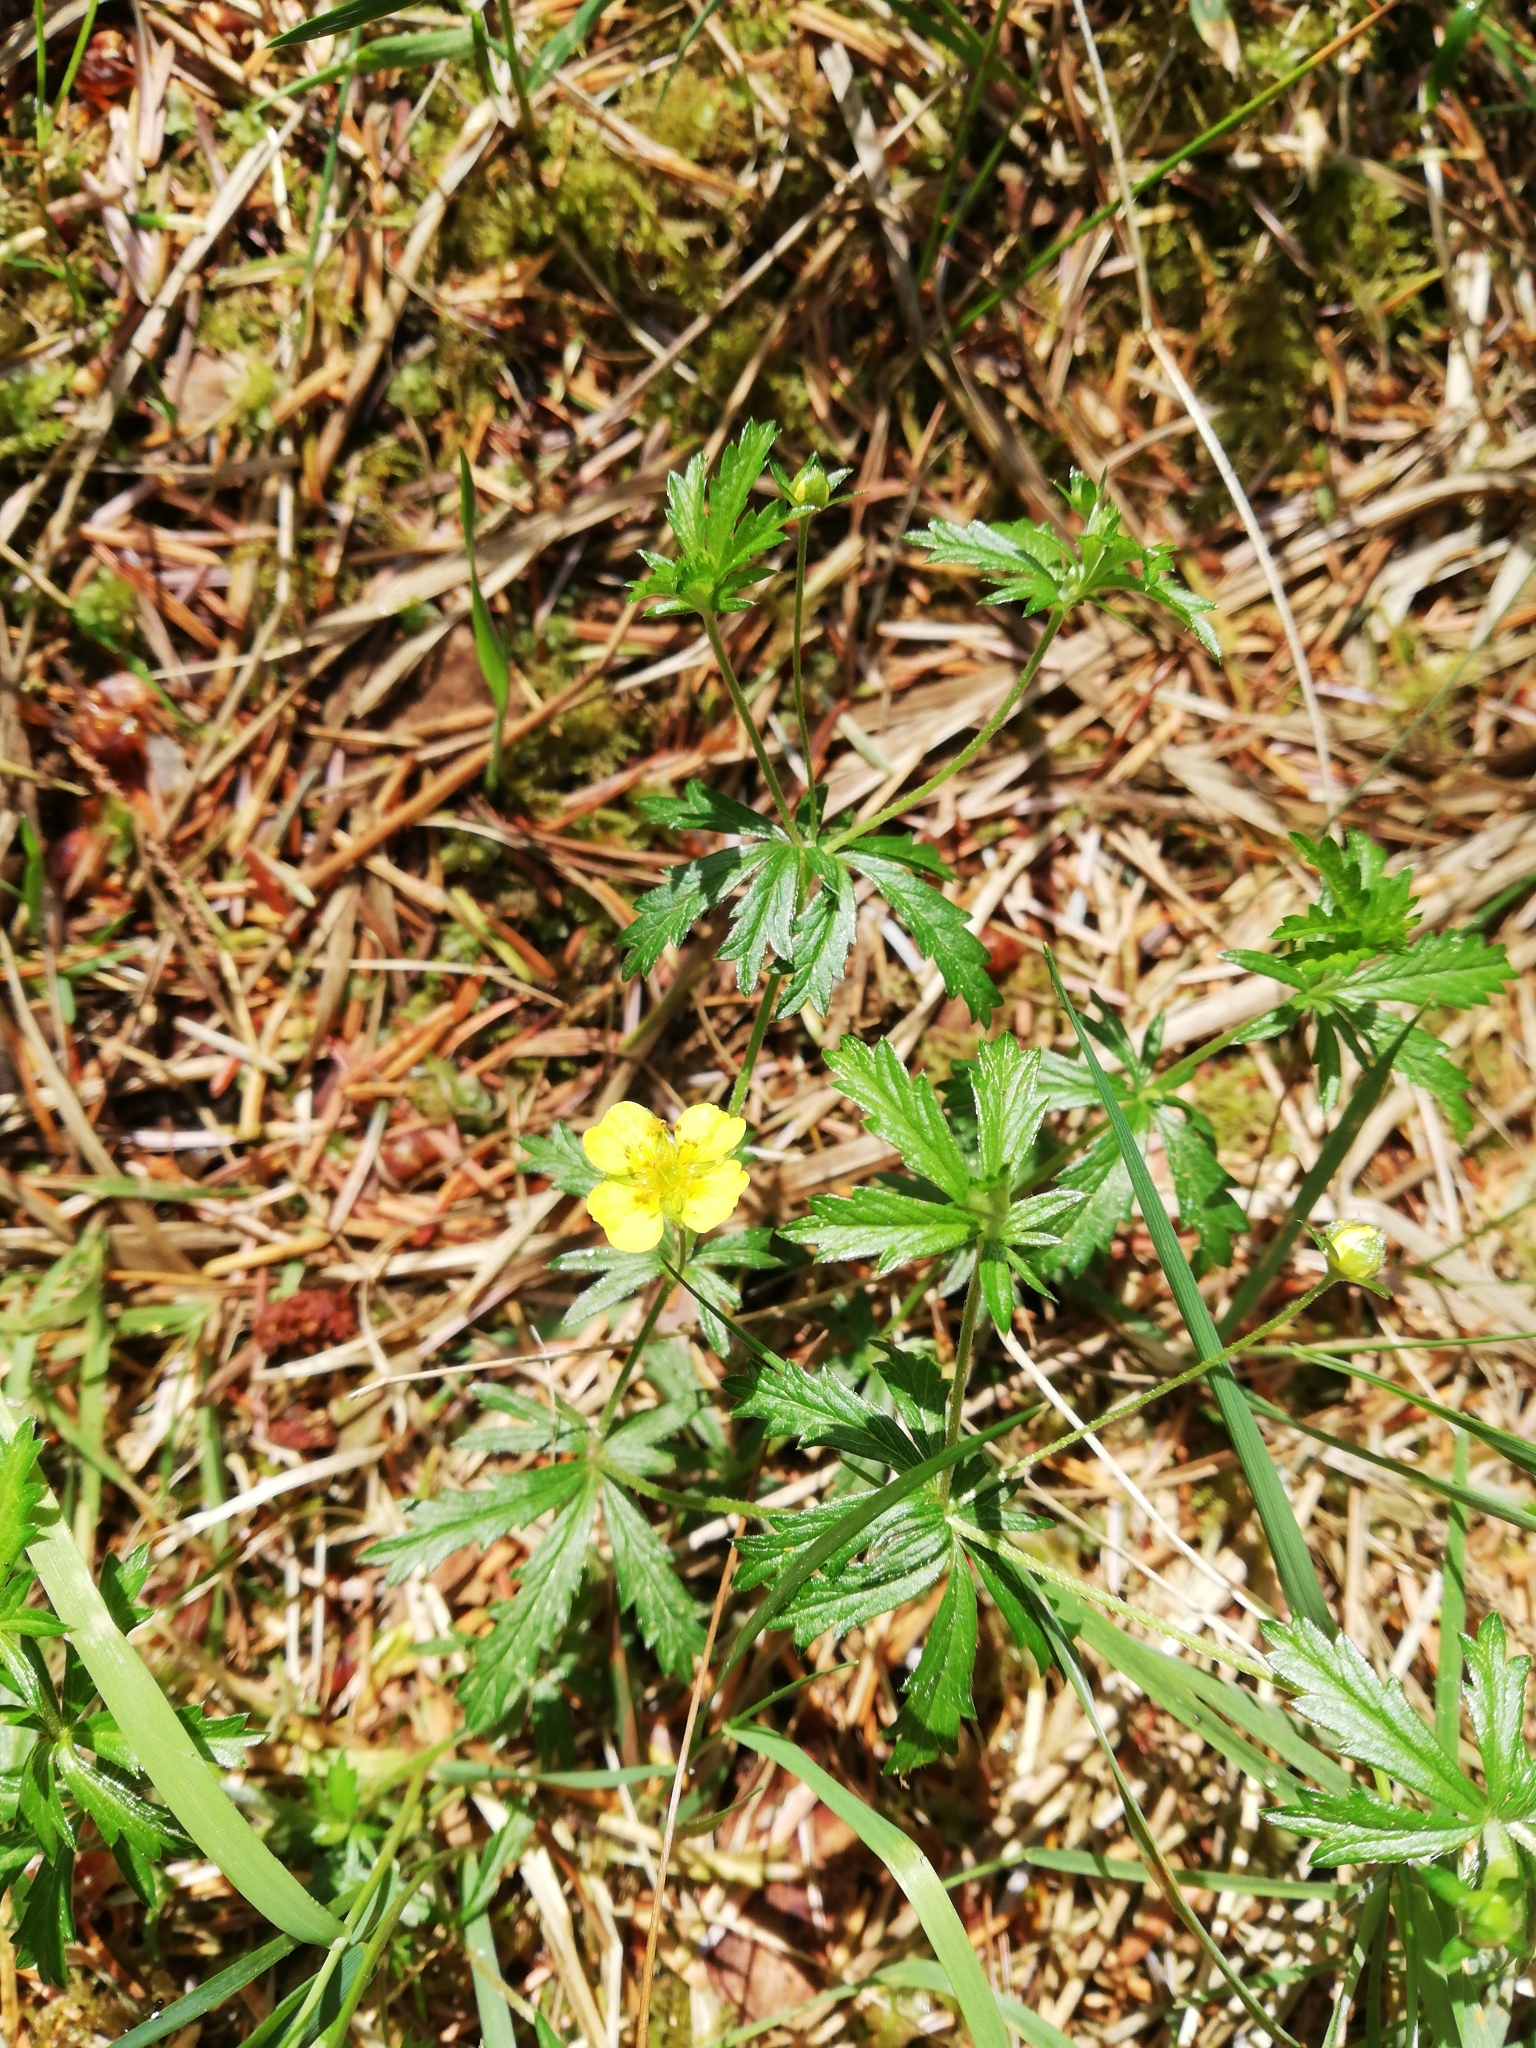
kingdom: Plantae
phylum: Tracheophyta
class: Magnoliopsida
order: Rosales
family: Rosaceae
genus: Potentilla
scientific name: Potentilla erecta
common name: Tormentil
